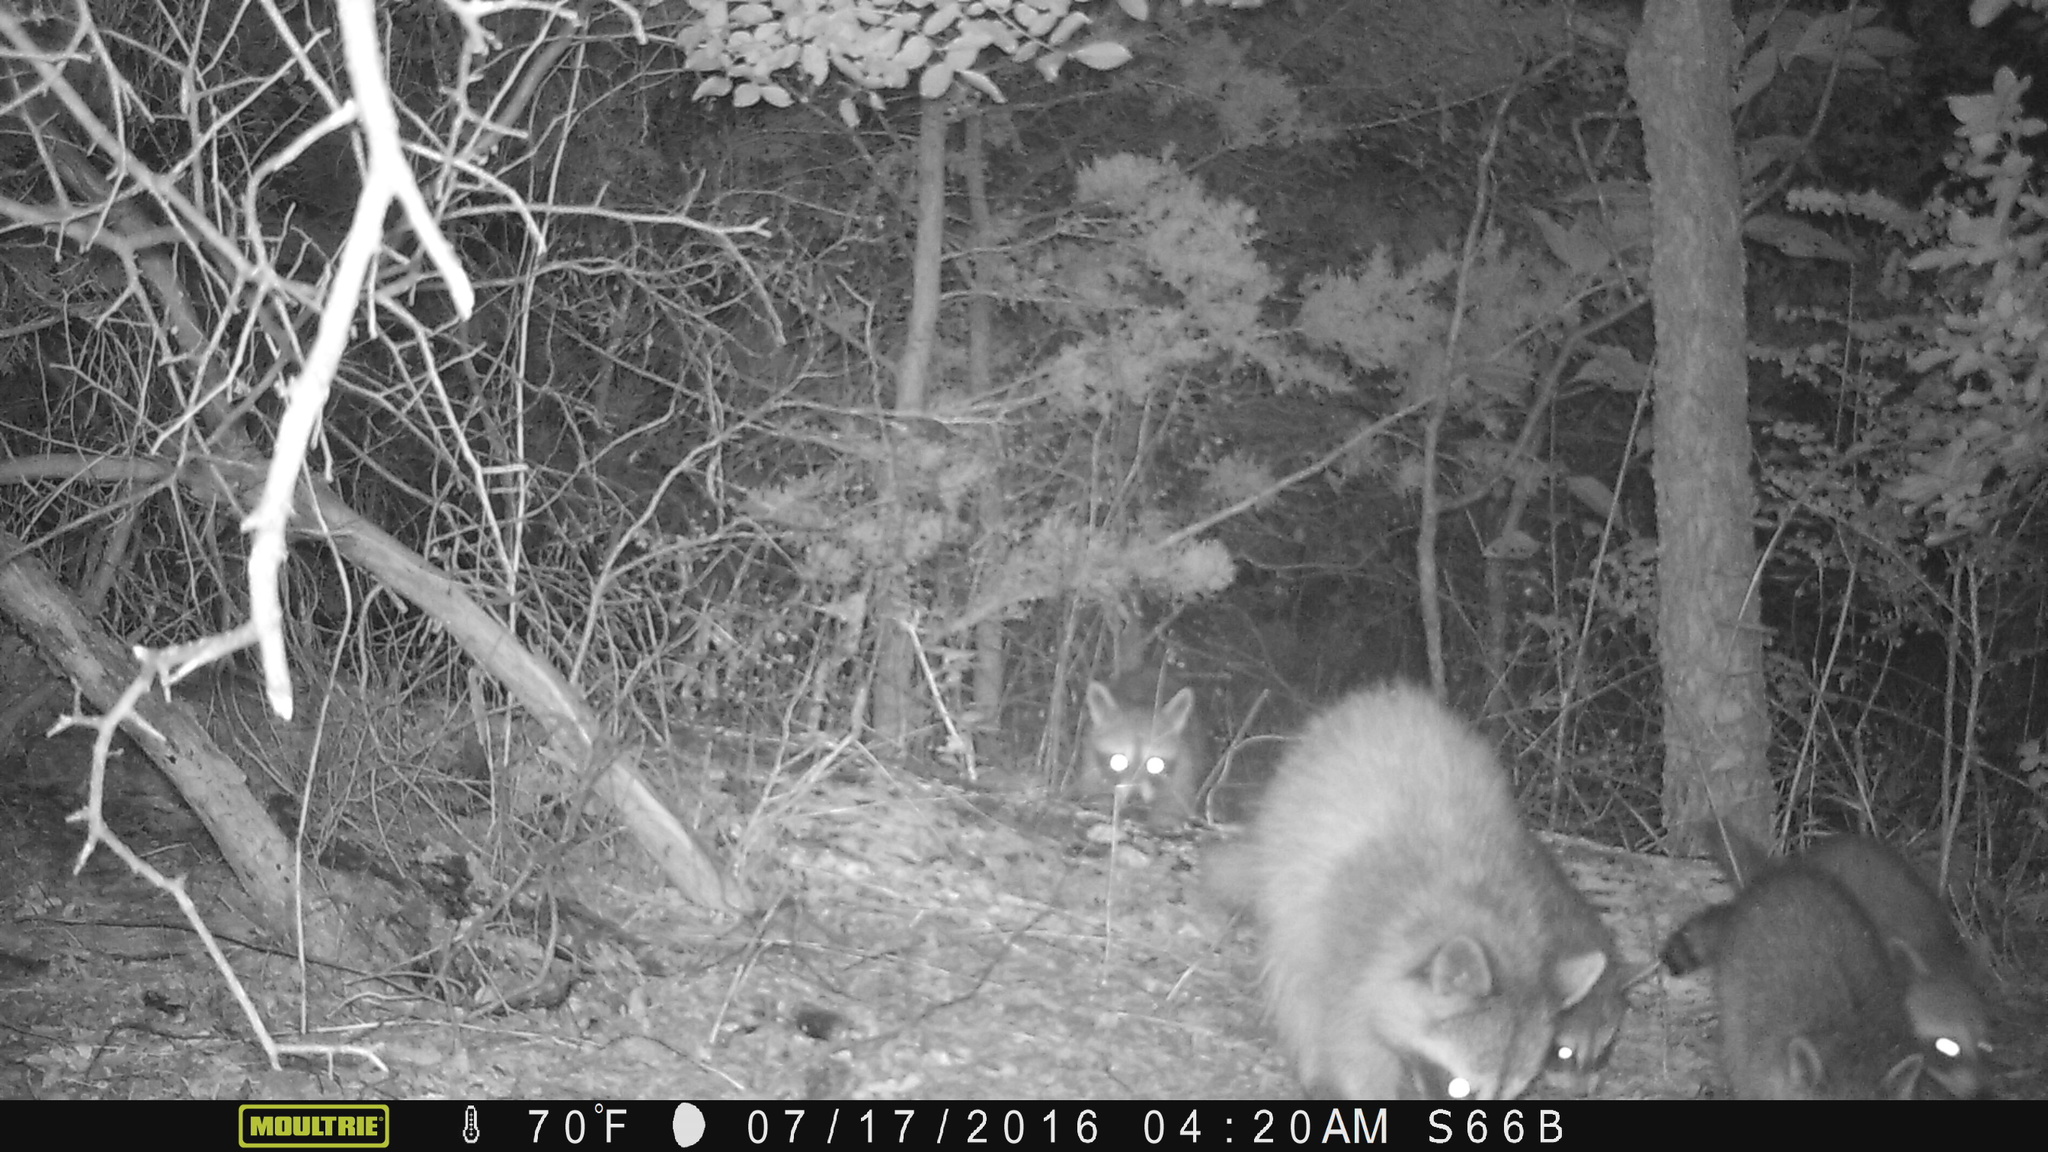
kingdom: Animalia
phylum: Chordata
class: Mammalia
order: Carnivora
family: Procyonidae
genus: Procyon
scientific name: Procyon lotor
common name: Raccoon
